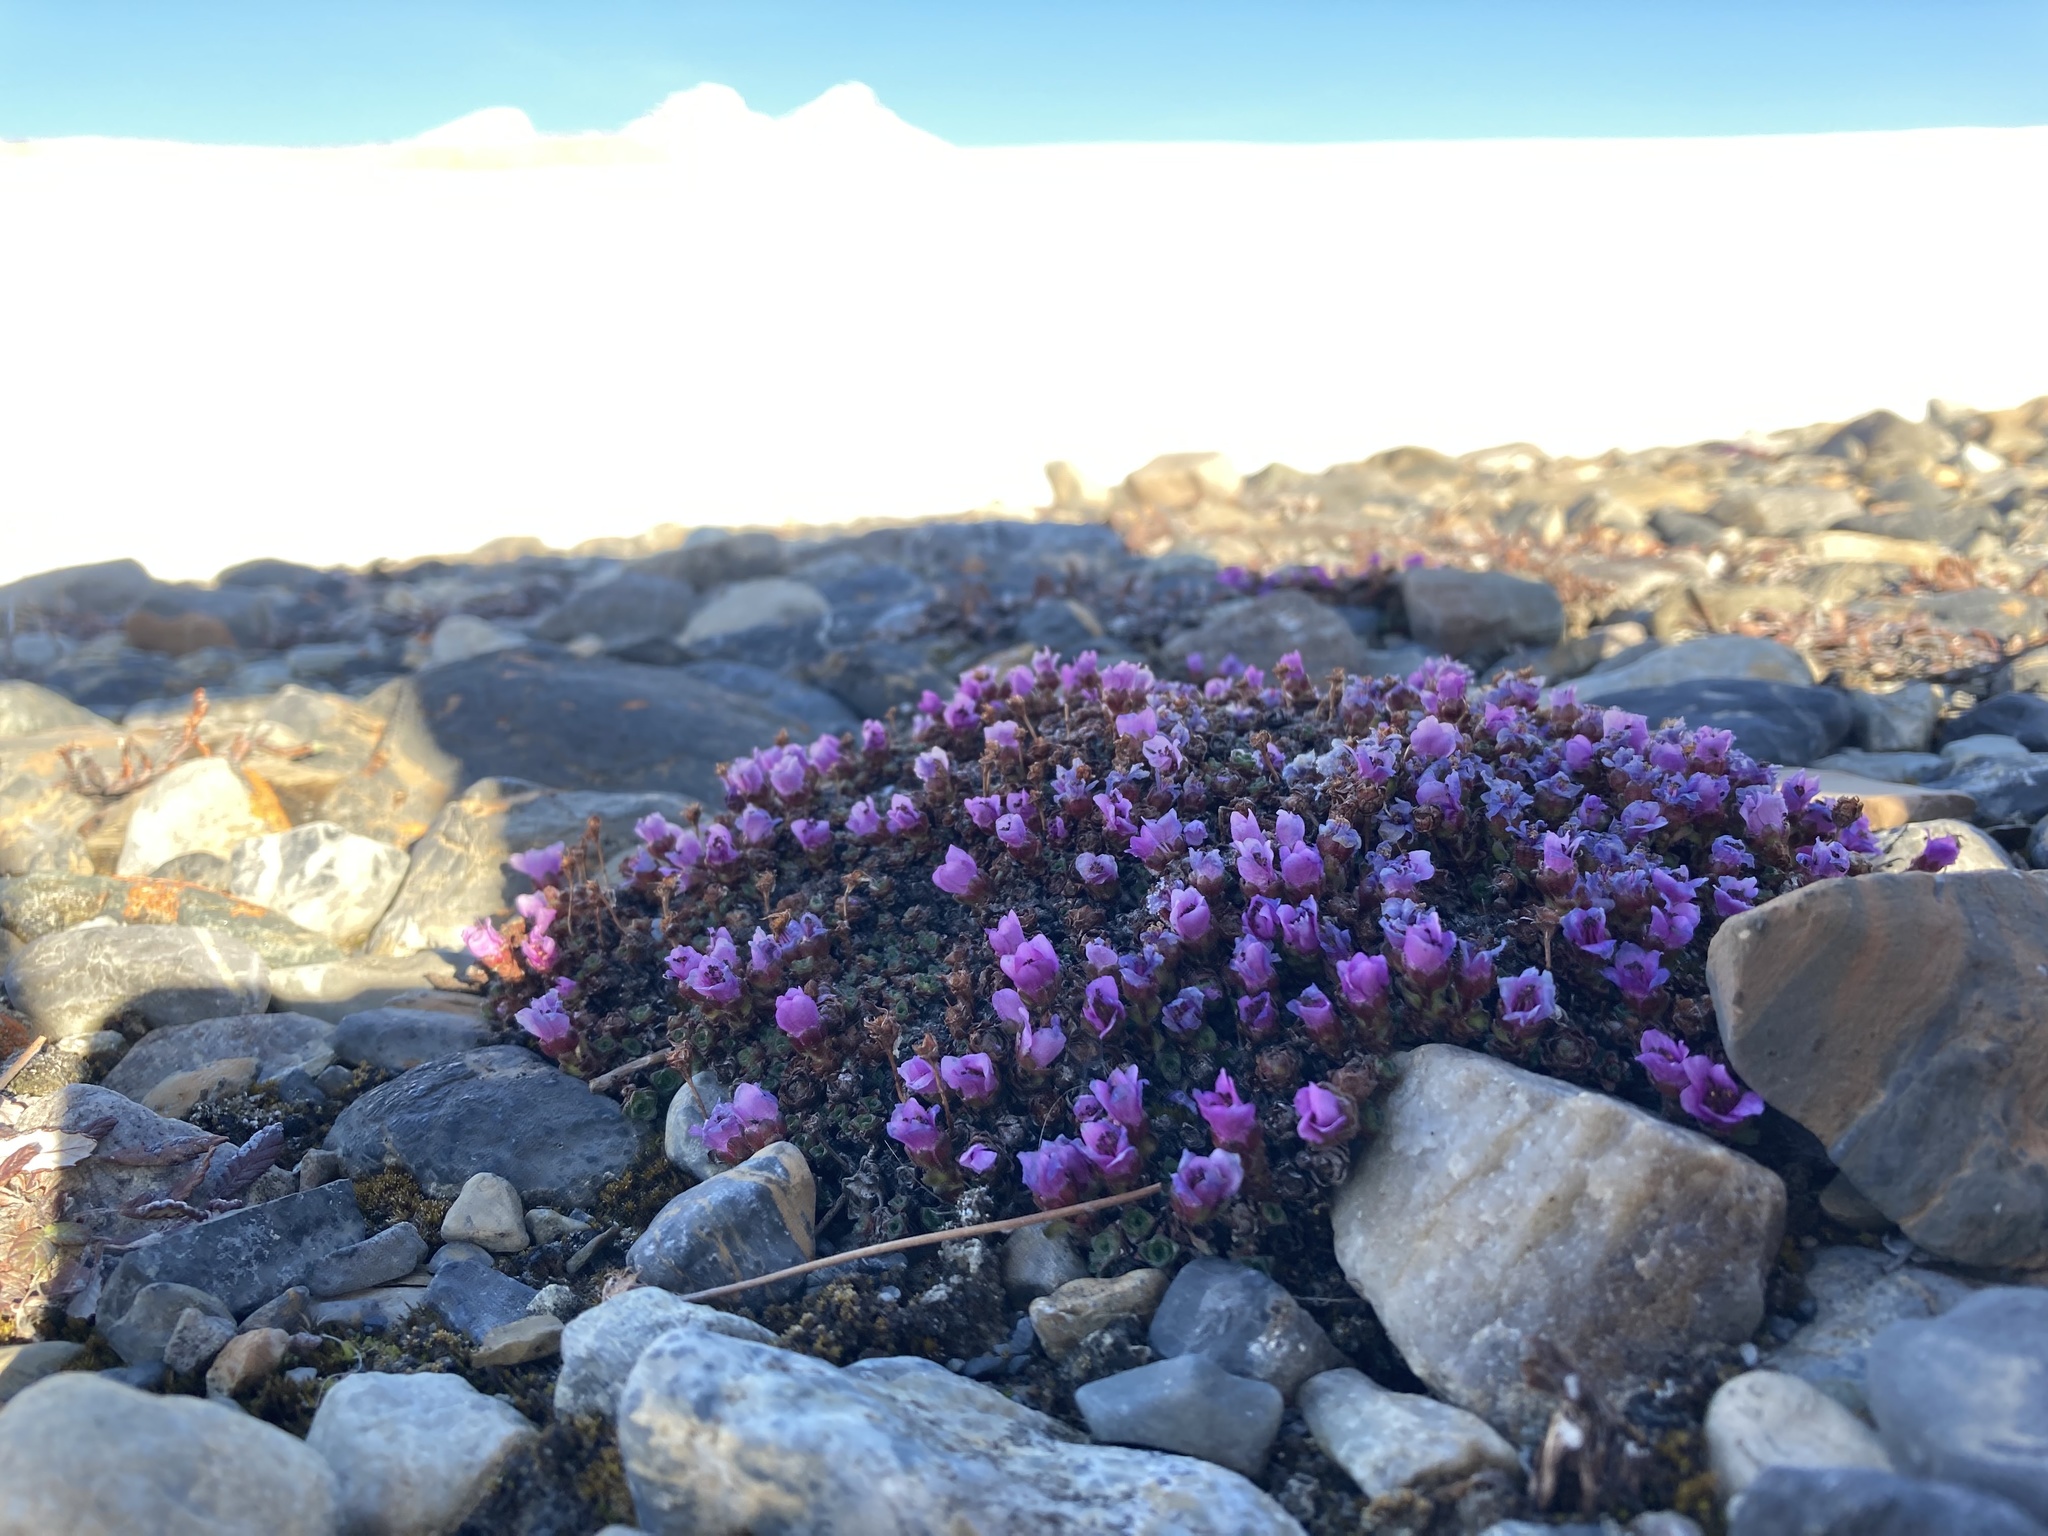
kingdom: Plantae
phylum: Tracheophyta
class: Magnoliopsida
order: Saxifragales
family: Saxifragaceae
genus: Saxifraga
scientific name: Saxifraga oppositifolia
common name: Purple saxifrage
